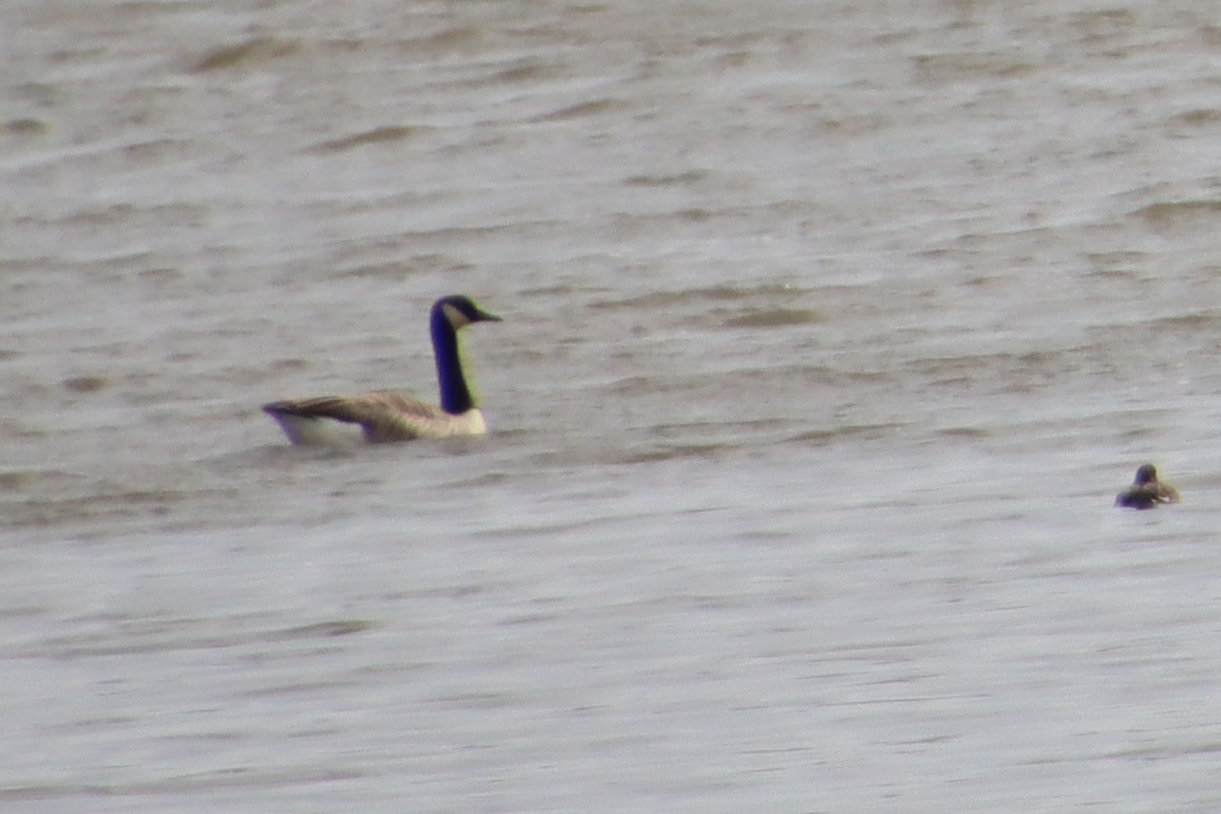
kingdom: Animalia
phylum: Chordata
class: Aves
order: Anseriformes
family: Anatidae
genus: Branta
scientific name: Branta canadensis
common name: Canada goose
